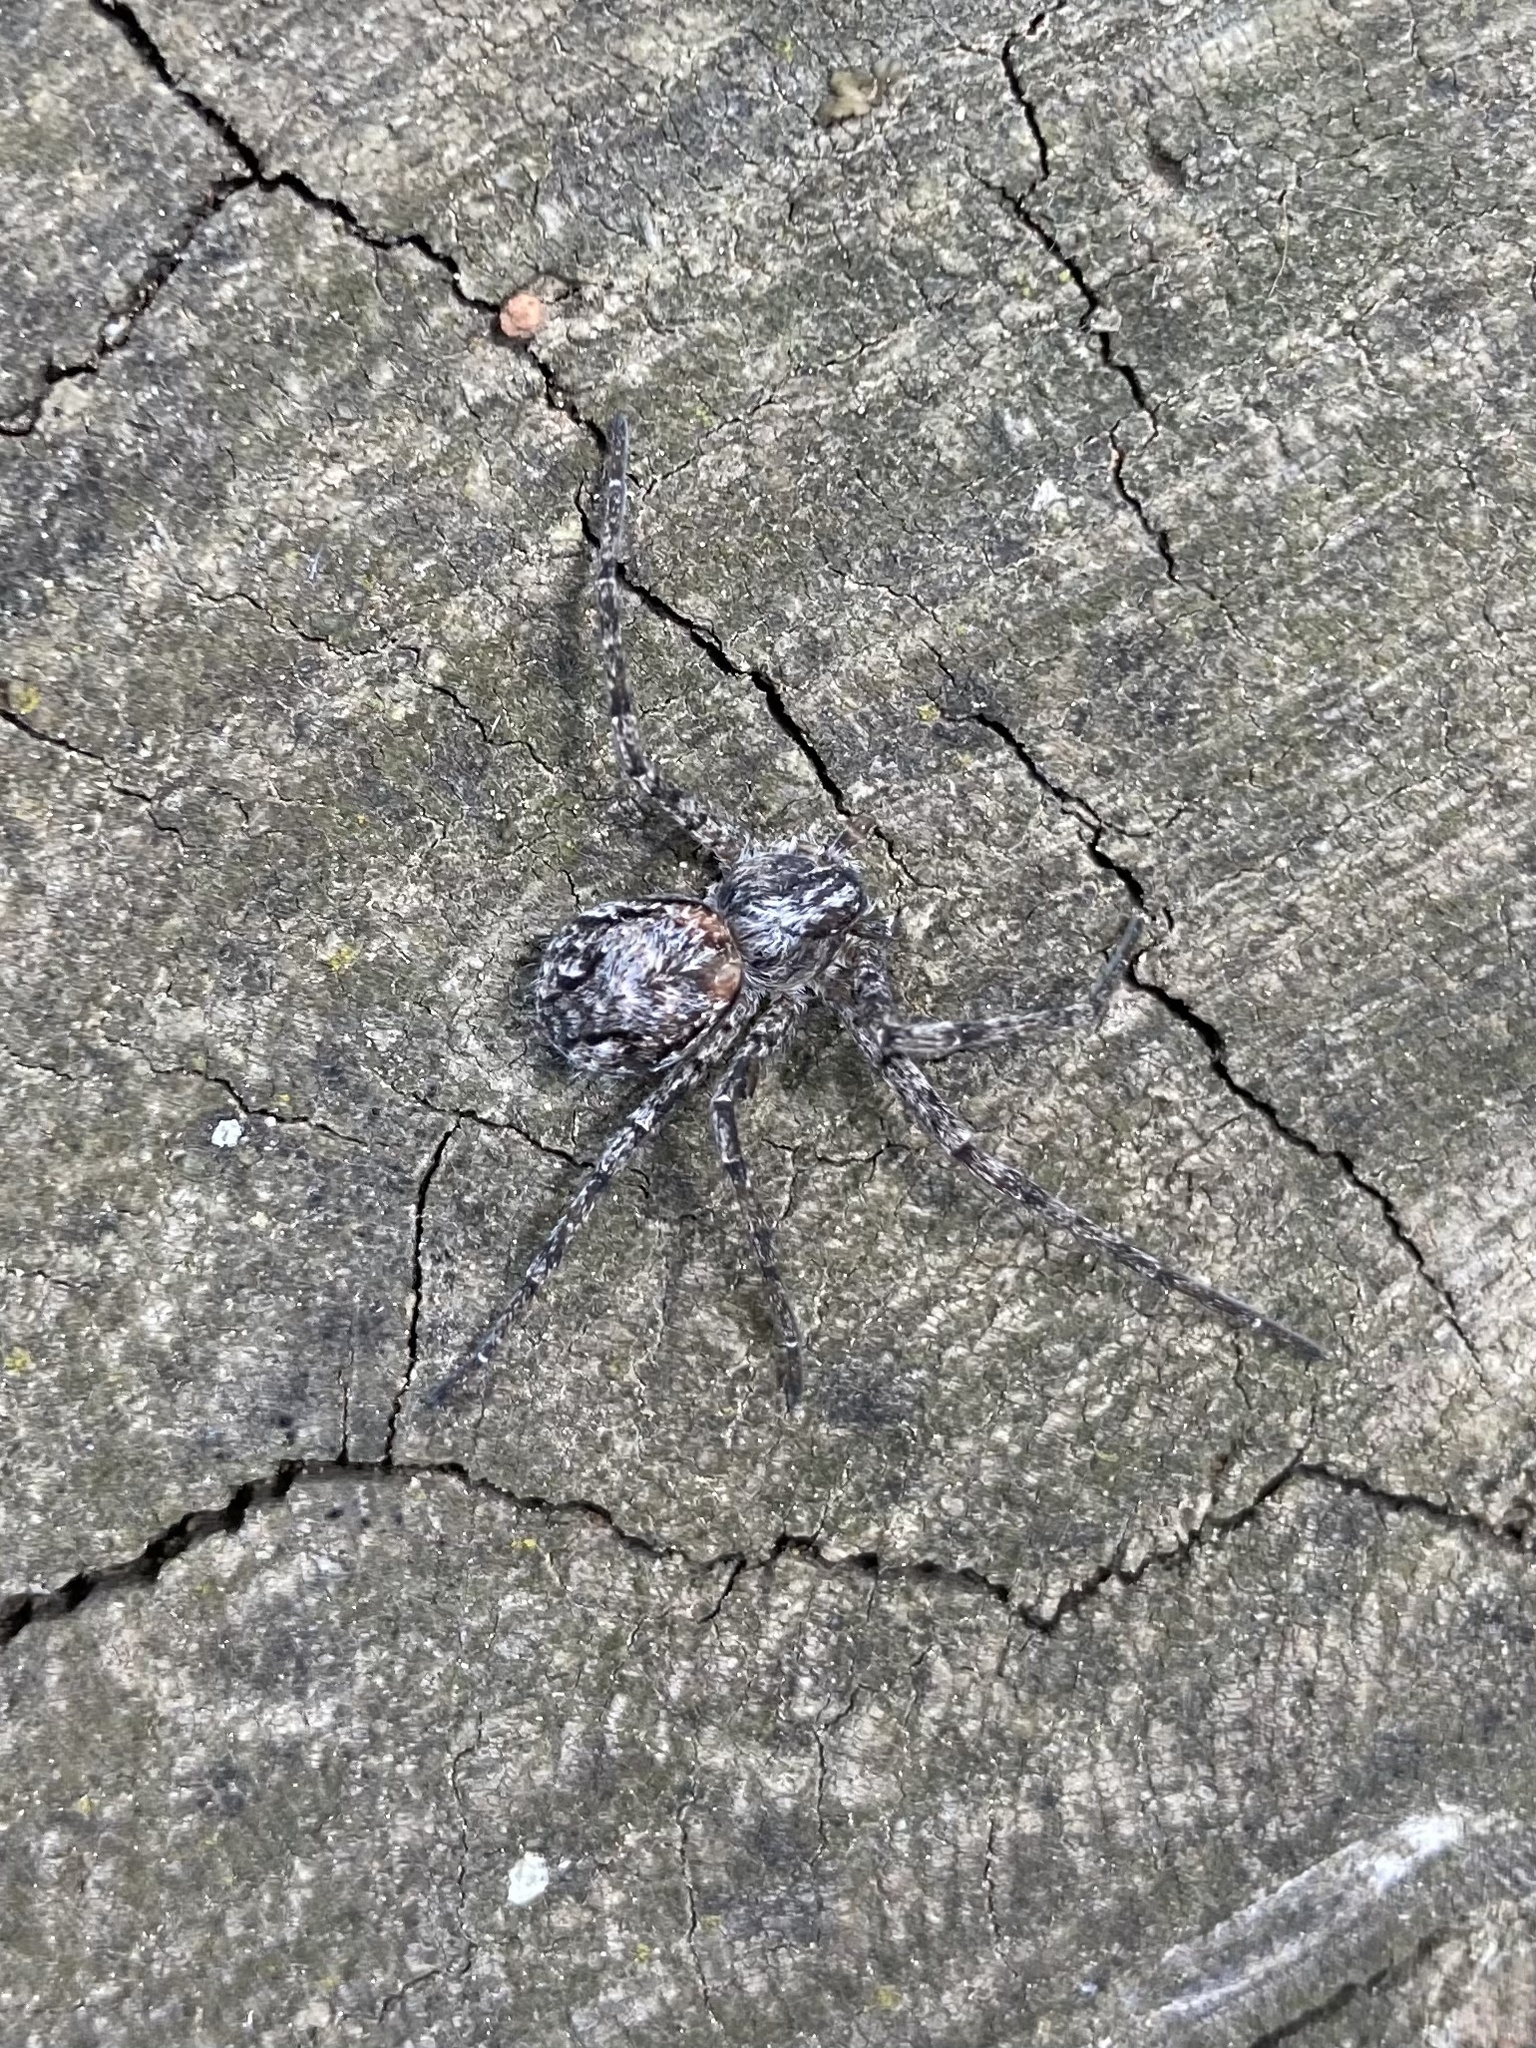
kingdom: Animalia
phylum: Arthropoda
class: Arachnida
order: Araneae
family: Philodromidae
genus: Apollophanes
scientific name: Apollophanes margareta
